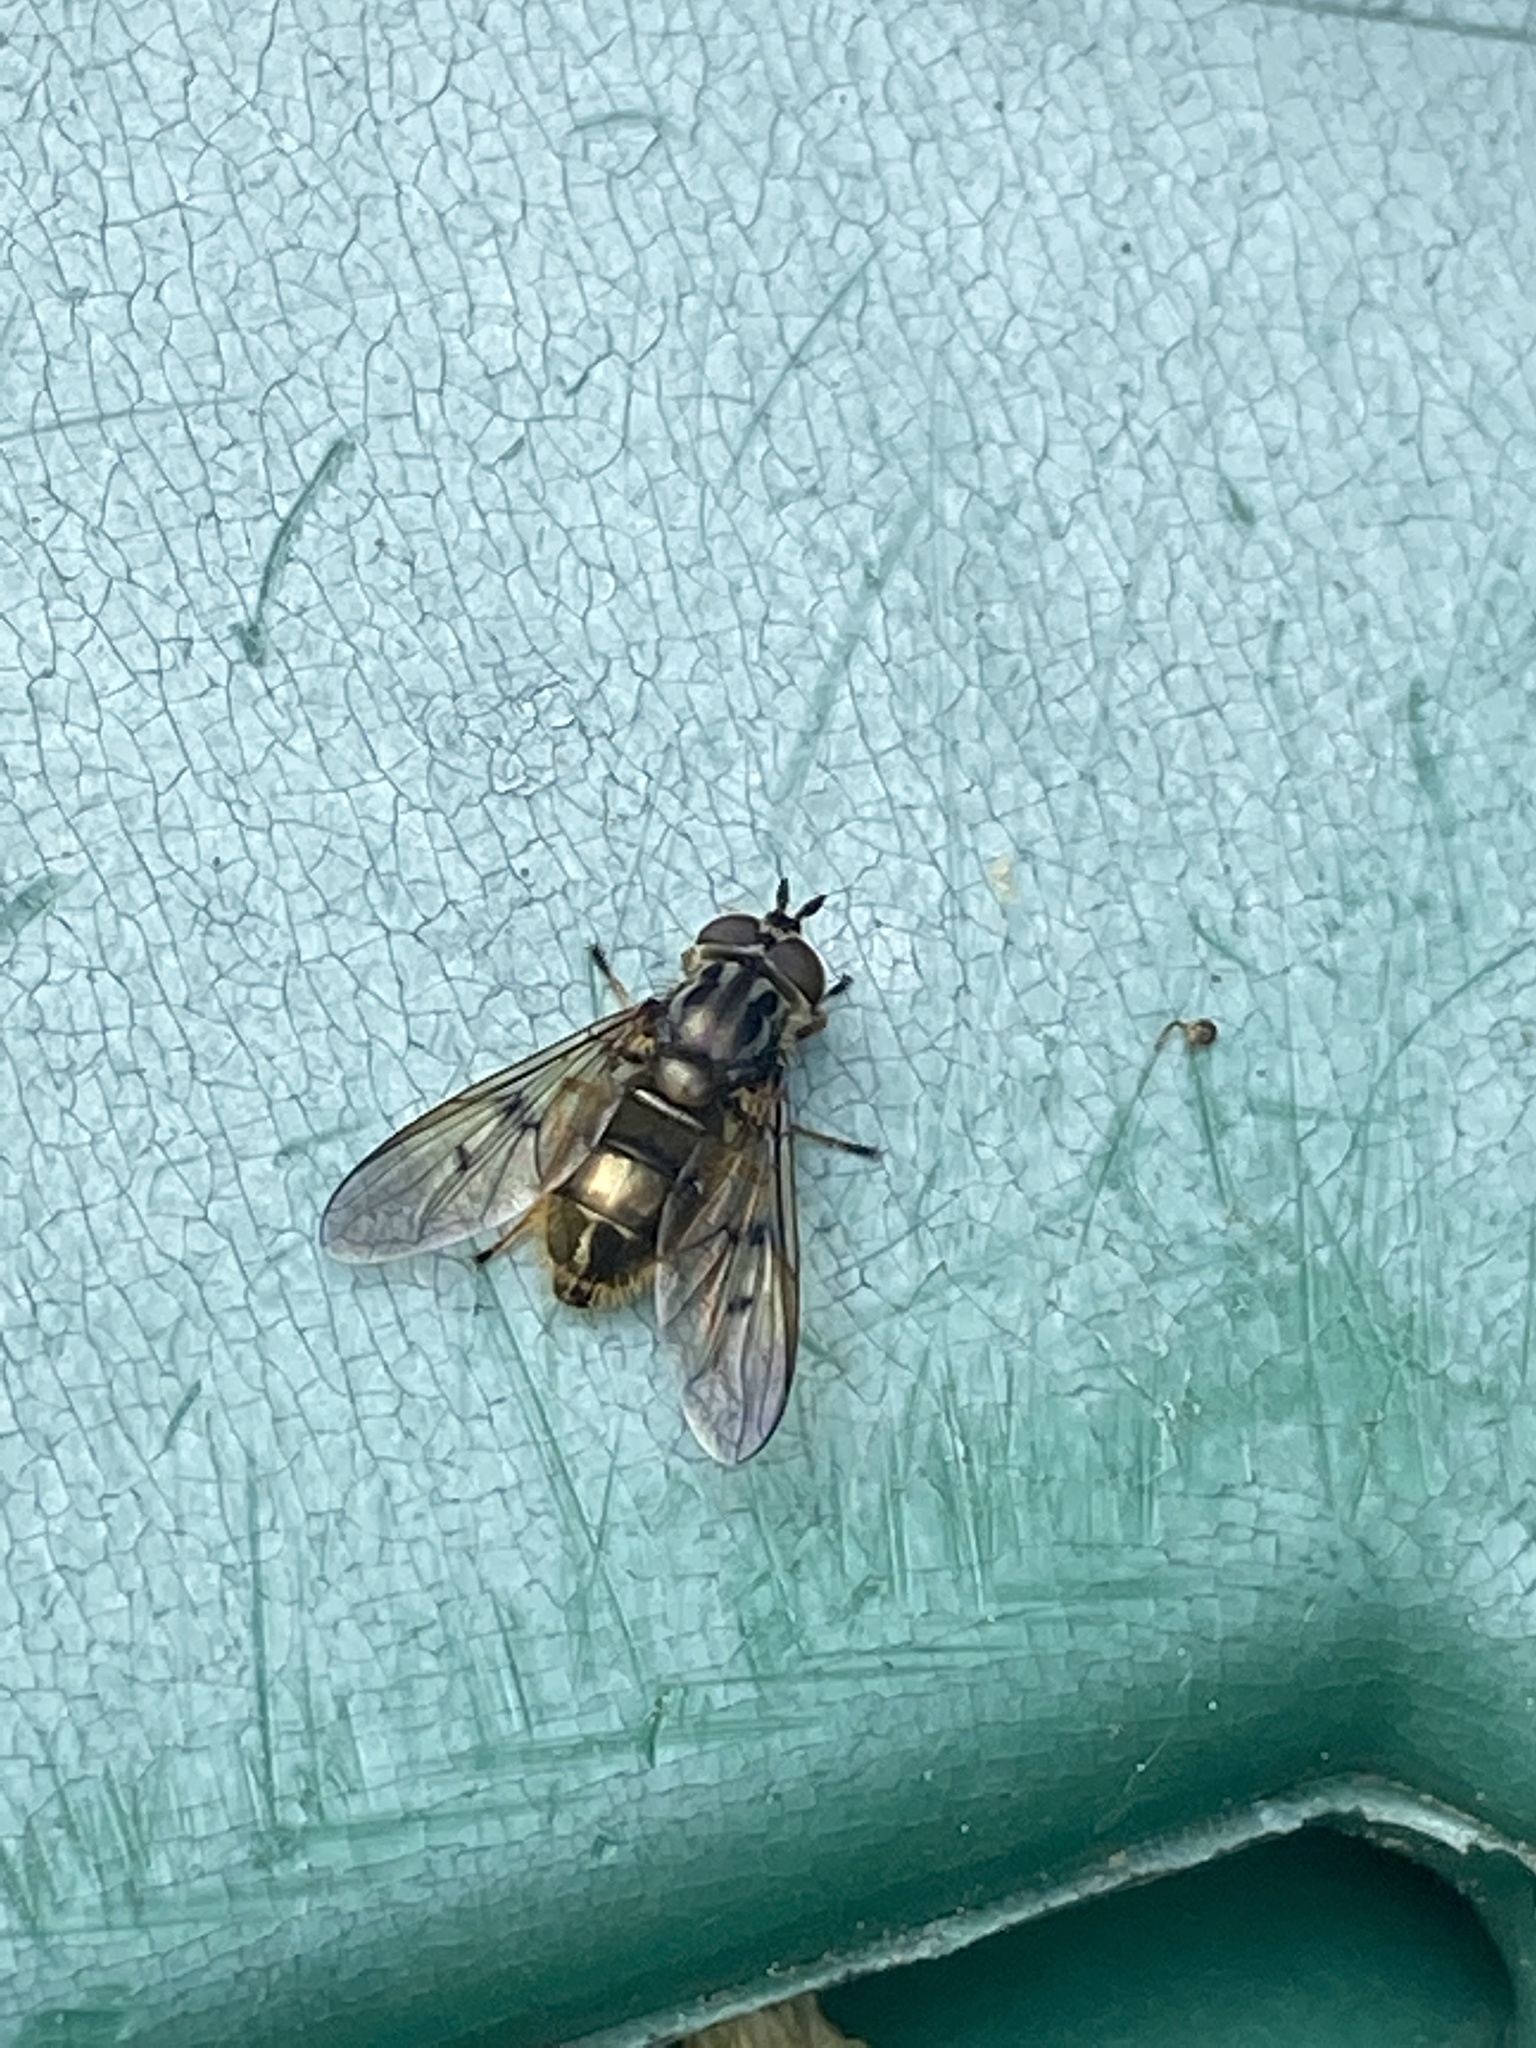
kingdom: Animalia
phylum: Arthropoda
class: Insecta
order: Diptera
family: Syrphidae
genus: Ferdinandea
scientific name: Ferdinandea cuprea
